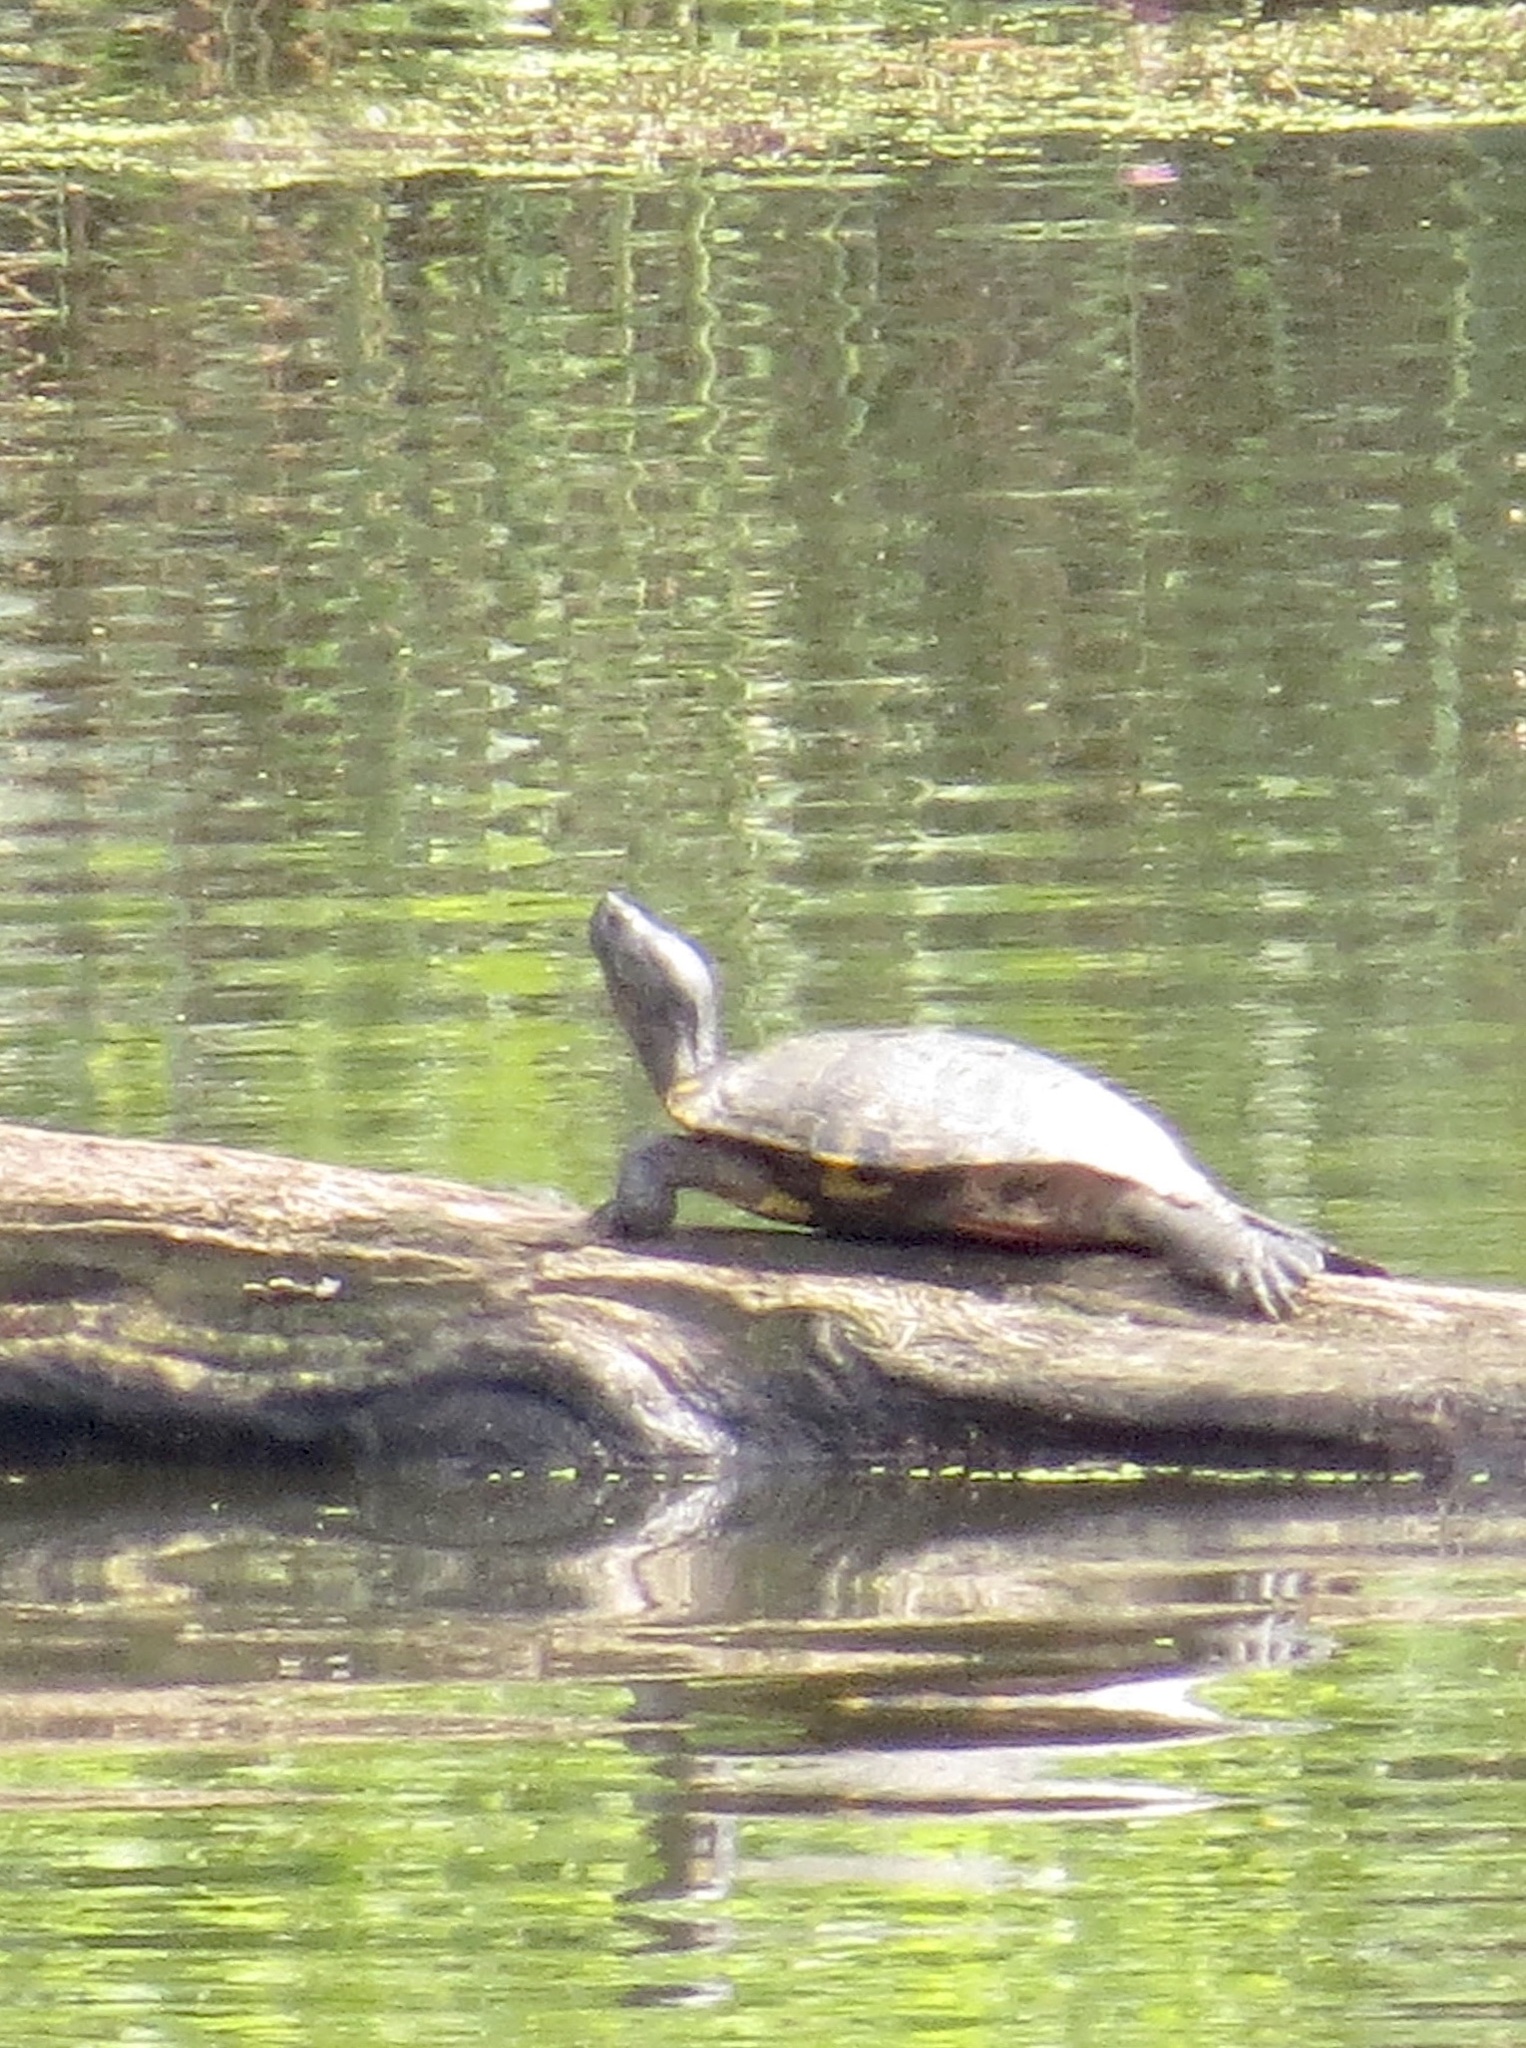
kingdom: Animalia
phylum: Chordata
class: Testudines
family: Emydidae
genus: Trachemys
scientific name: Trachemys scripta
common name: Slider
